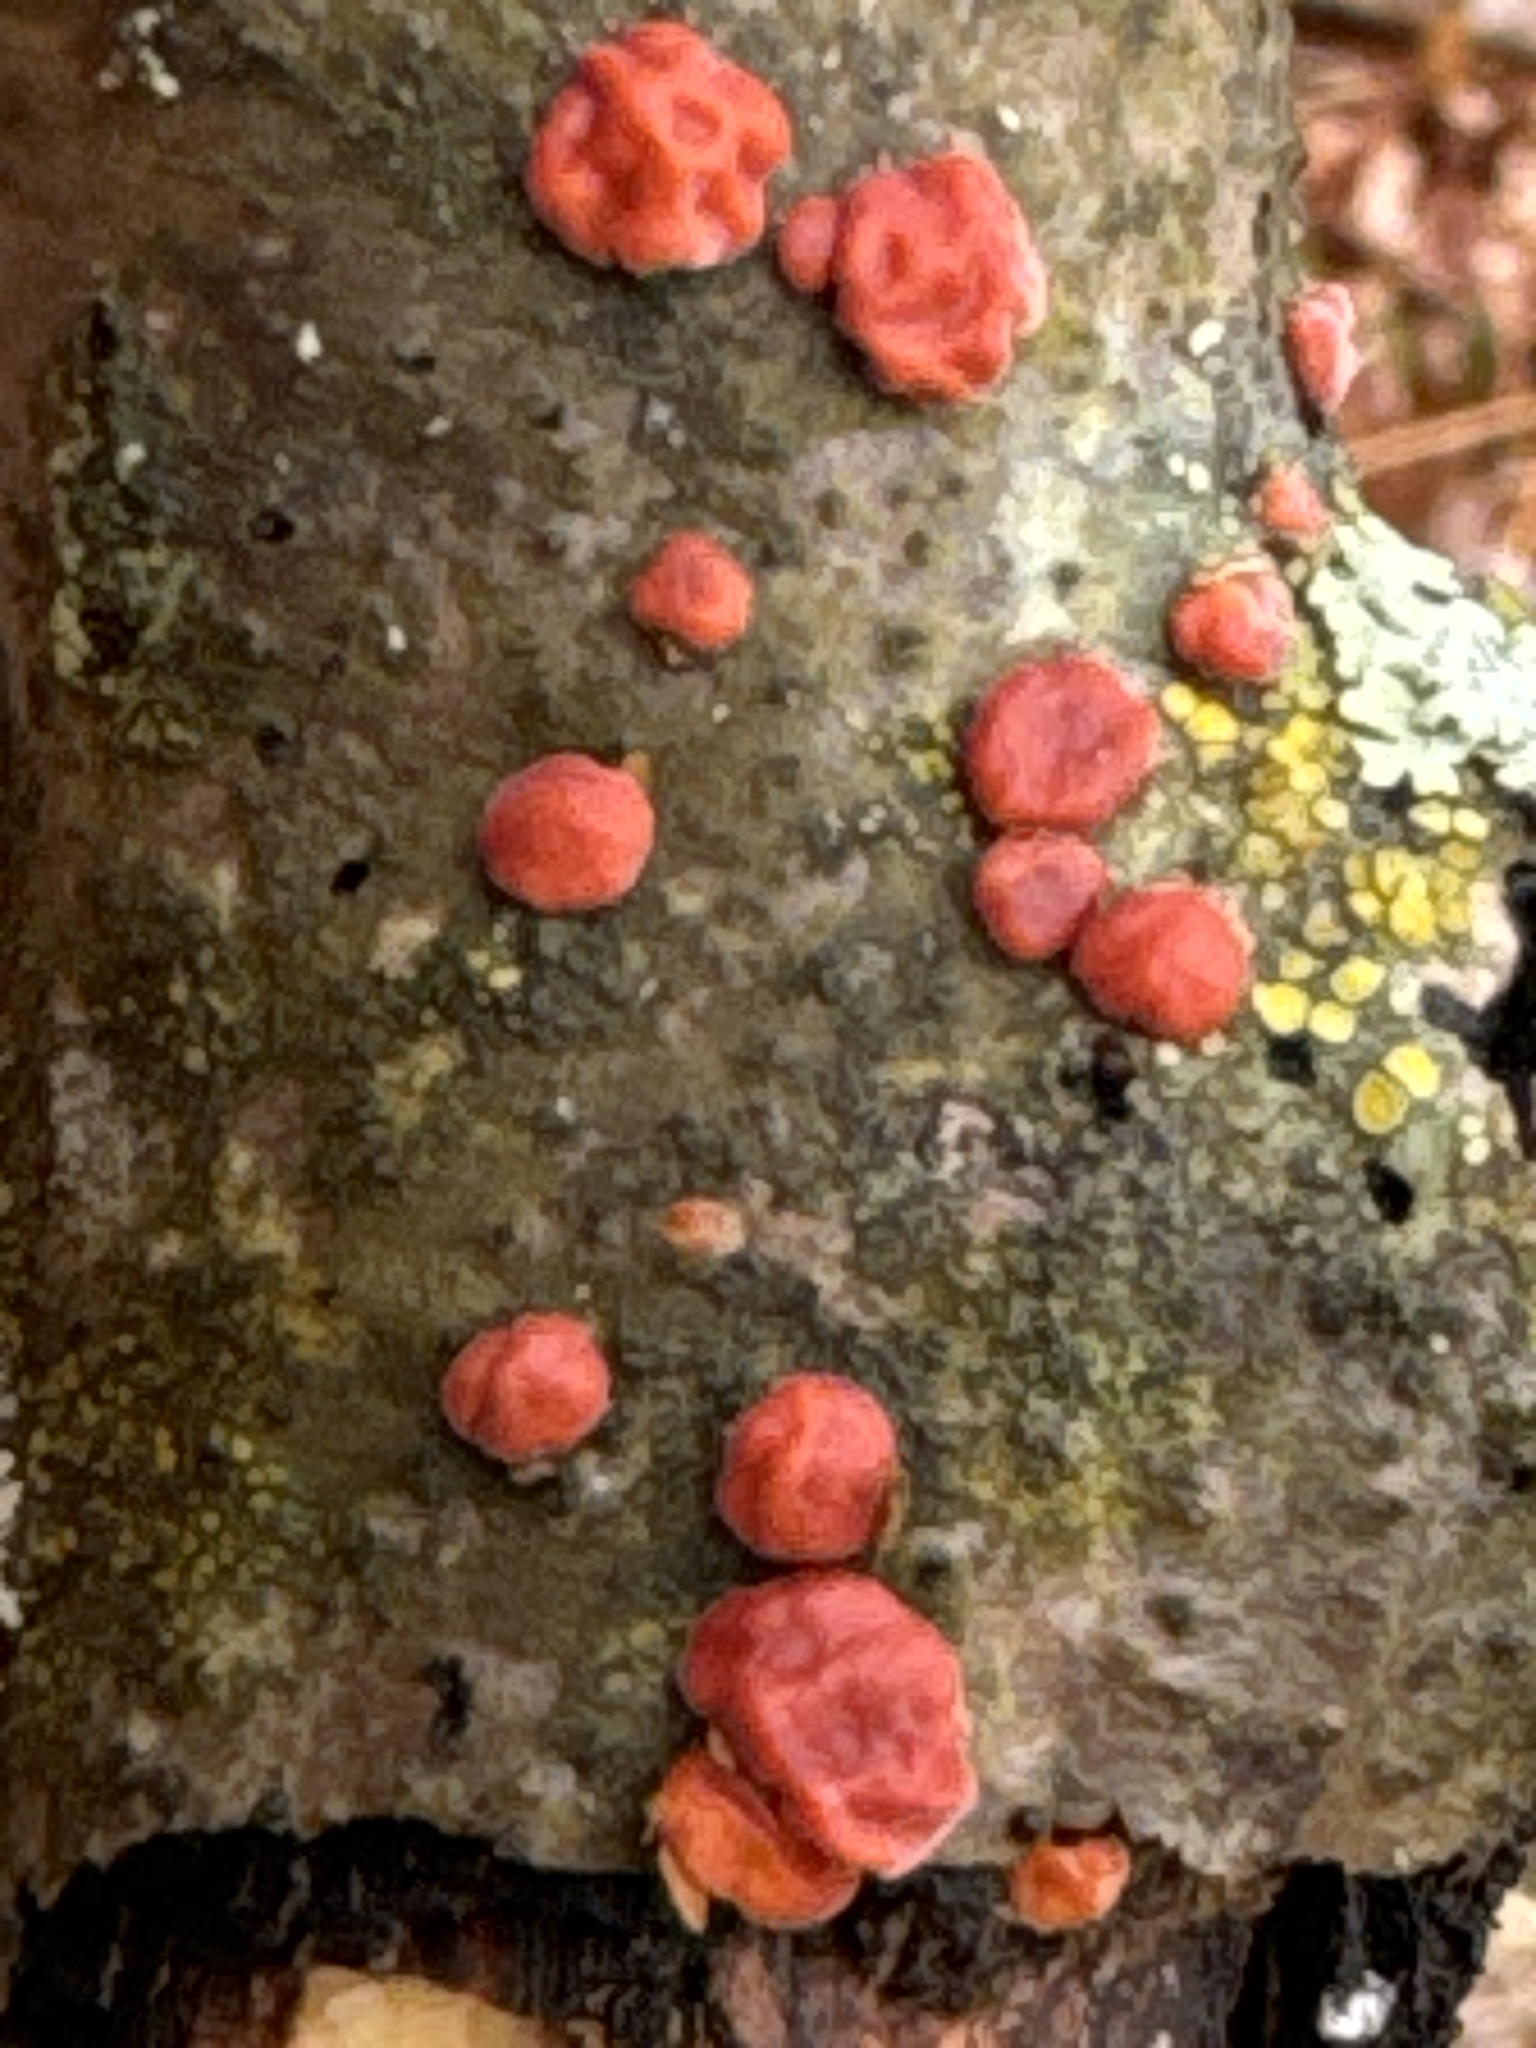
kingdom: Fungi
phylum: Basidiomycota
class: Agaricomycetes
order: Russulales
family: Peniophoraceae
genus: Peniophora
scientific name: Peniophora rufa
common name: Red tree brain fungus
